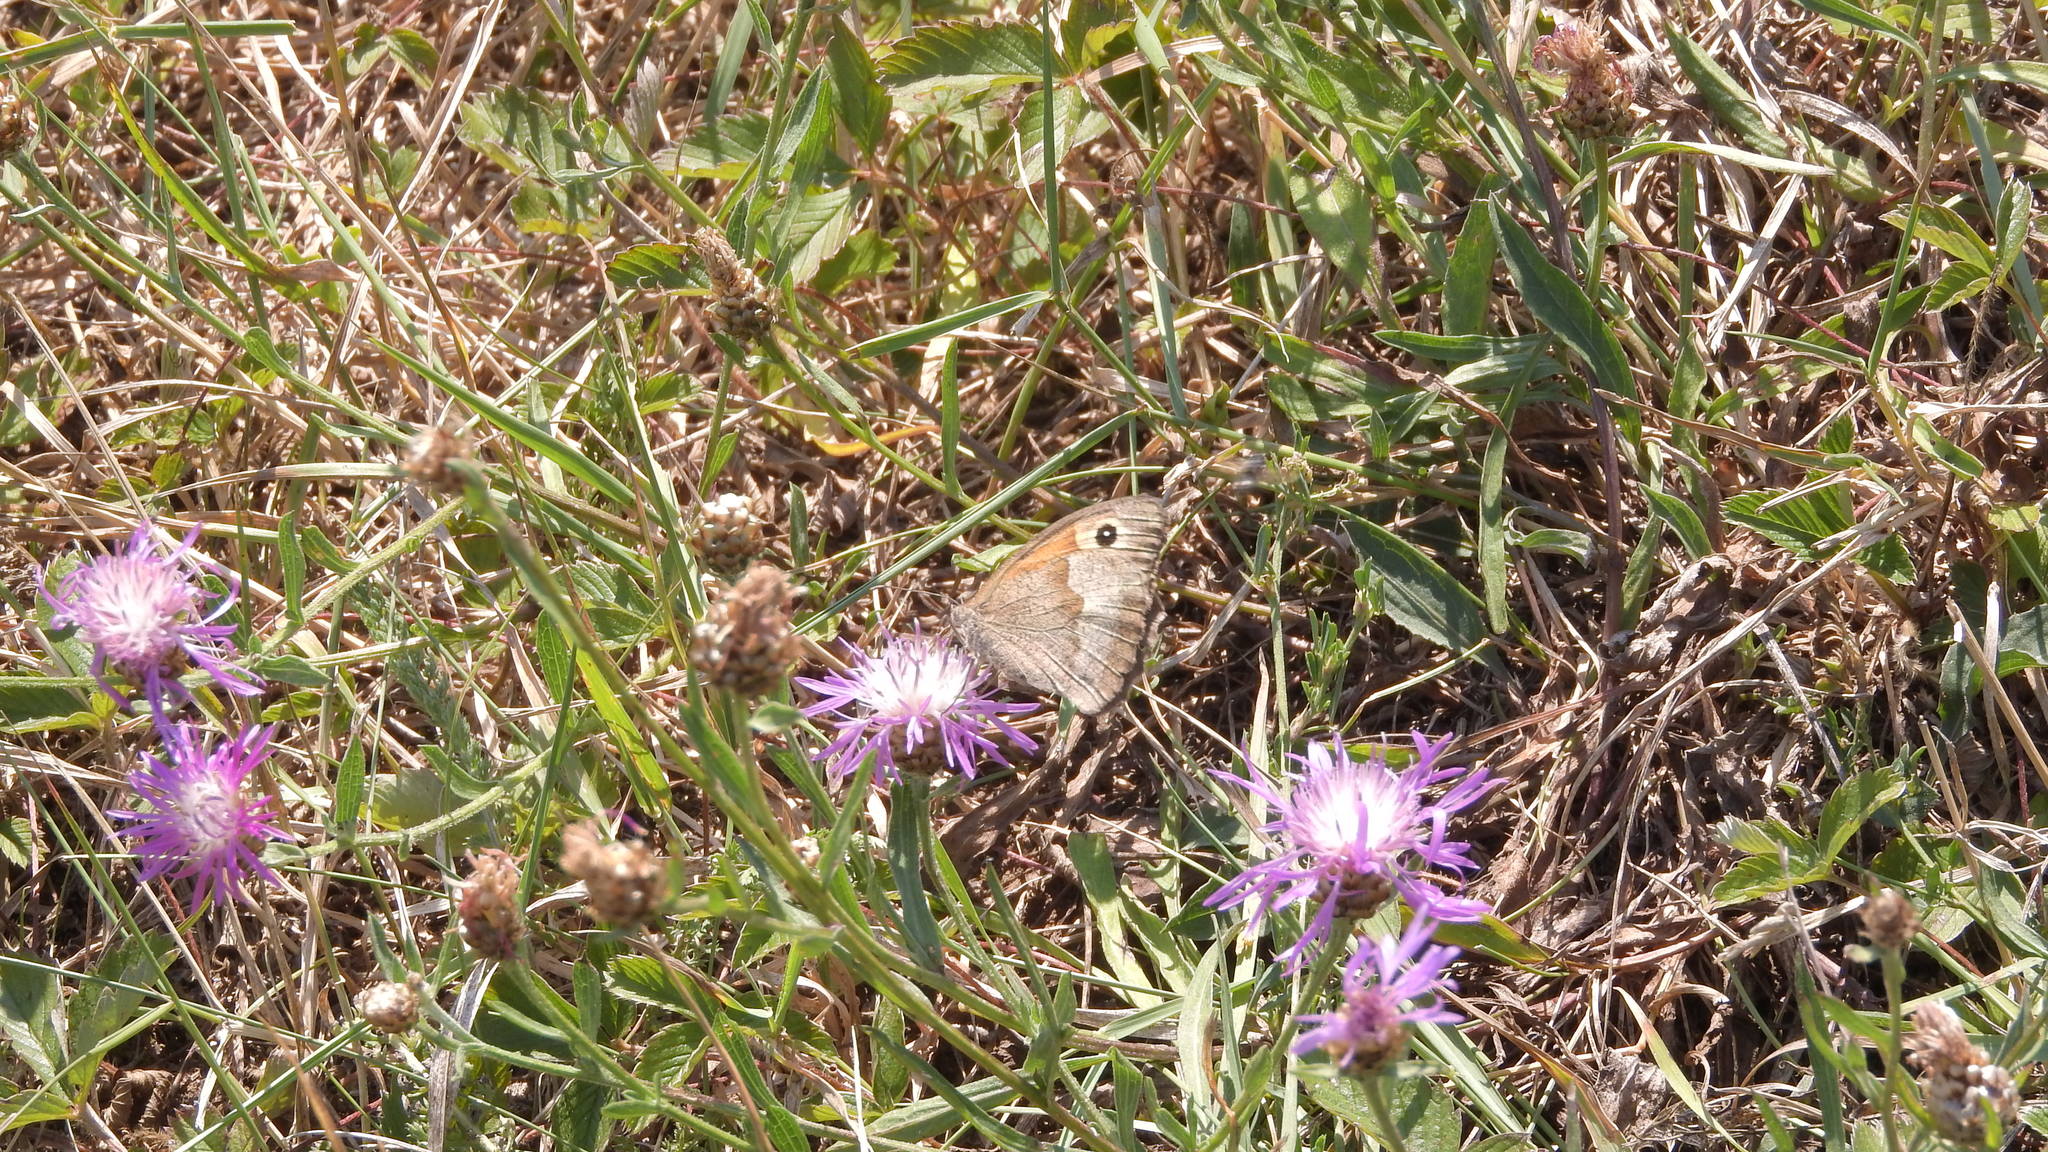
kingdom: Animalia
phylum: Arthropoda
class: Insecta
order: Lepidoptera
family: Nymphalidae
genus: Maniola
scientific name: Maniola jurtina
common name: Meadow brown
